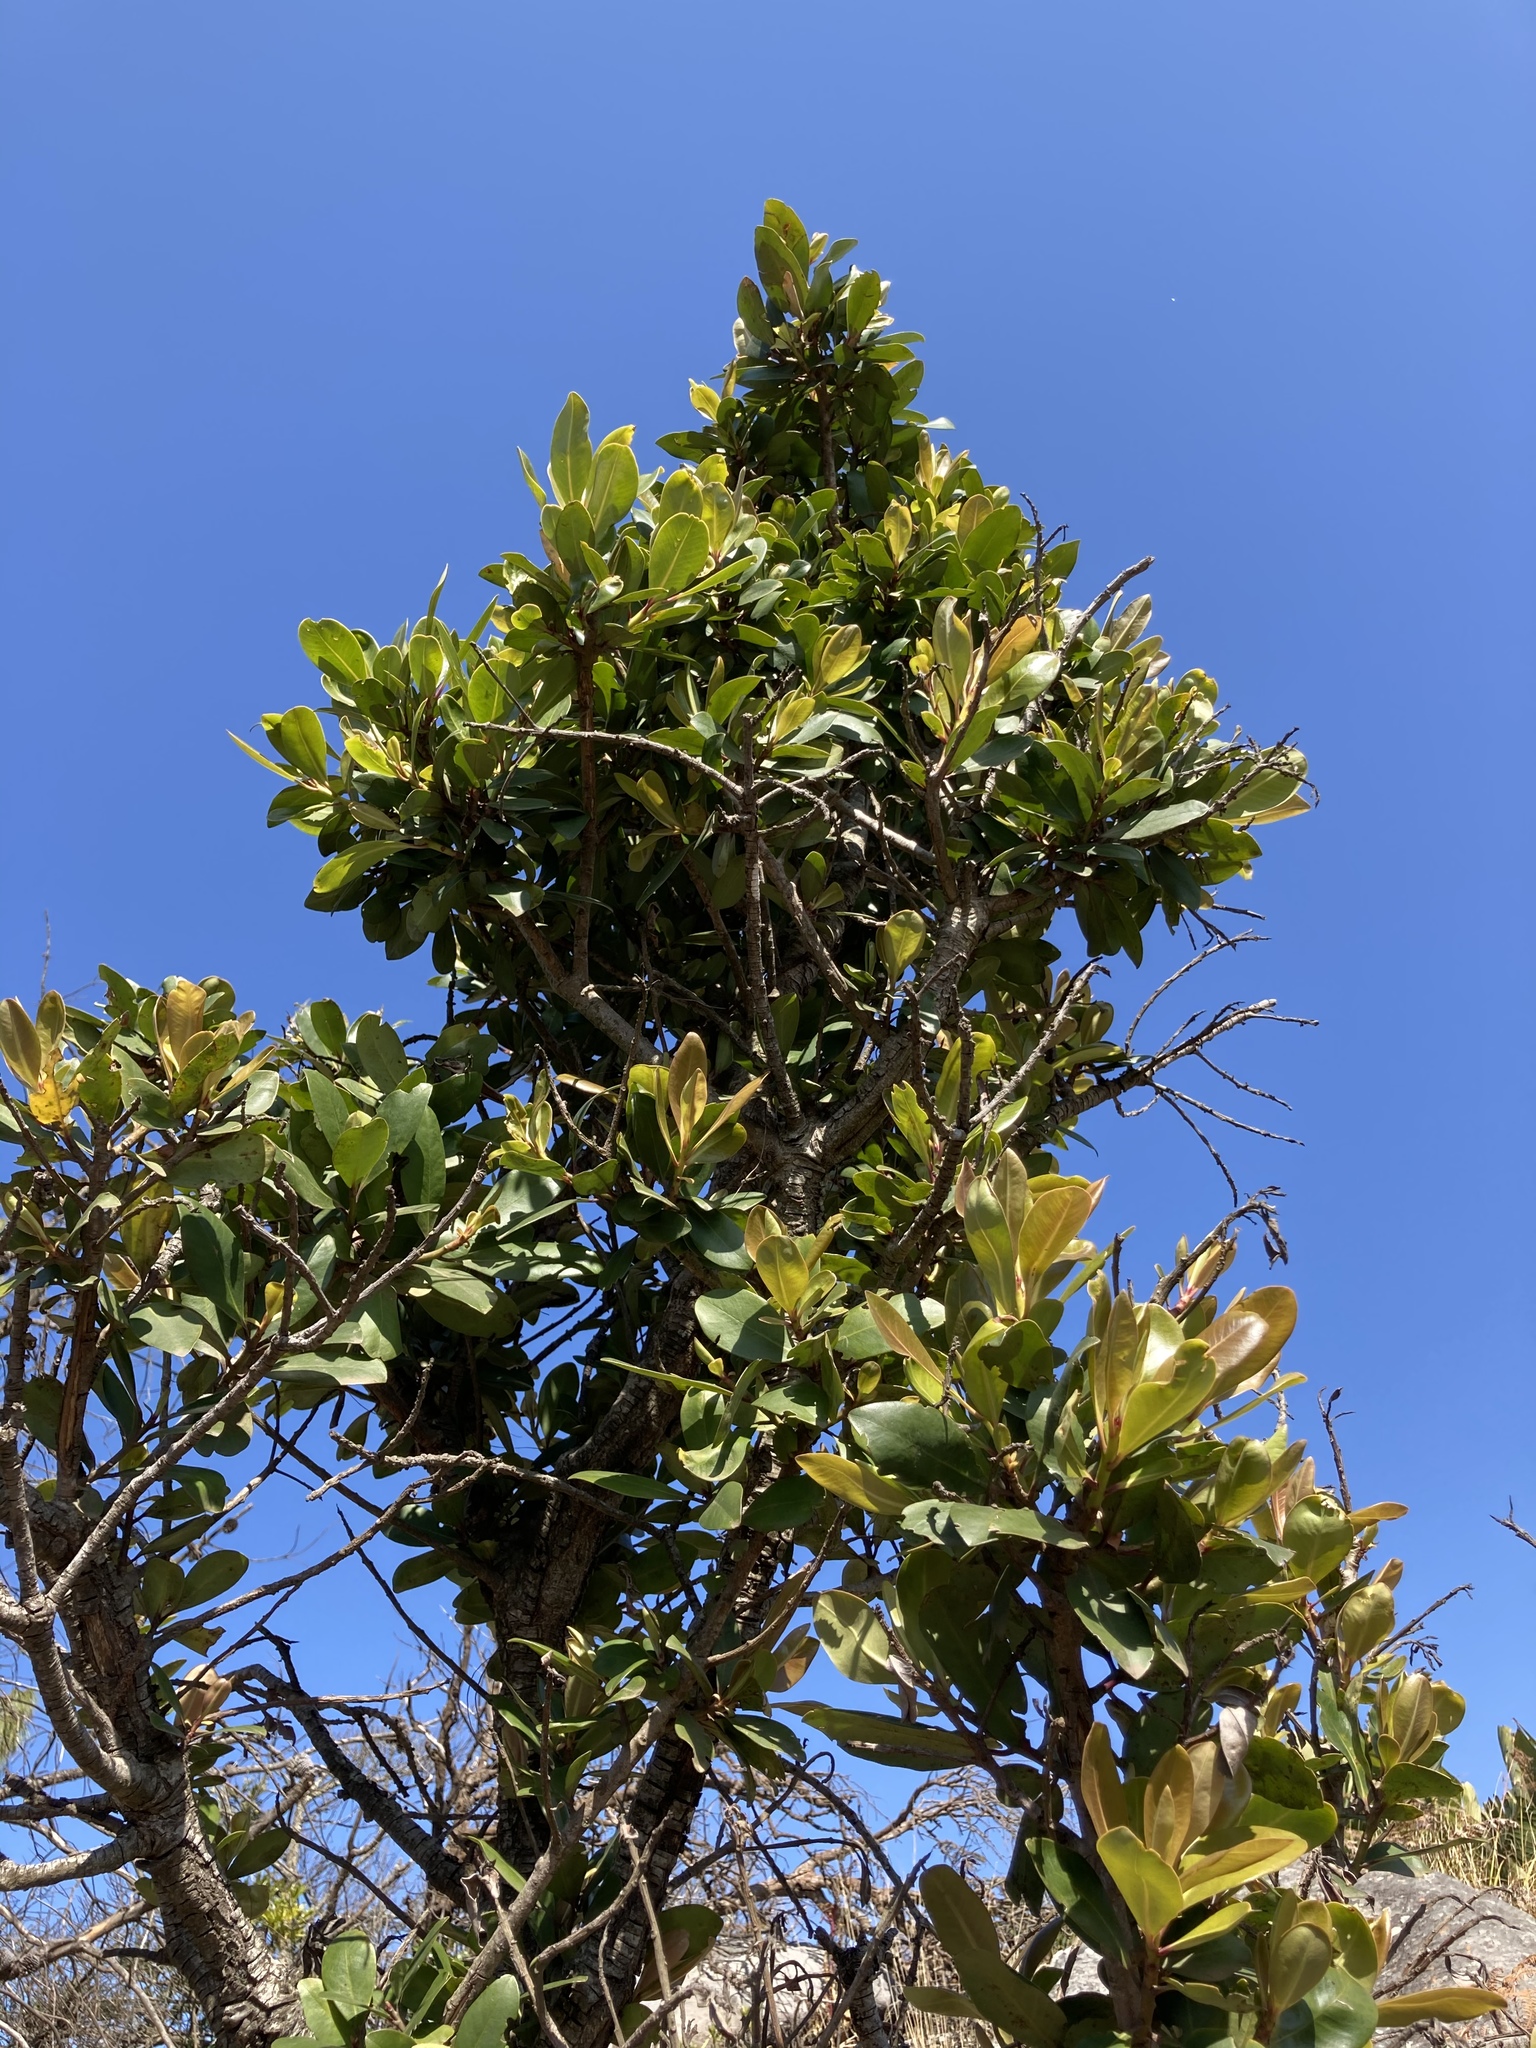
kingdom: Plantae
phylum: Tracheophyta
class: Magnoliopsida
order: Ericales
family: Primulaceae
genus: Myrsine
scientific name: Myrsine melanophloeos
